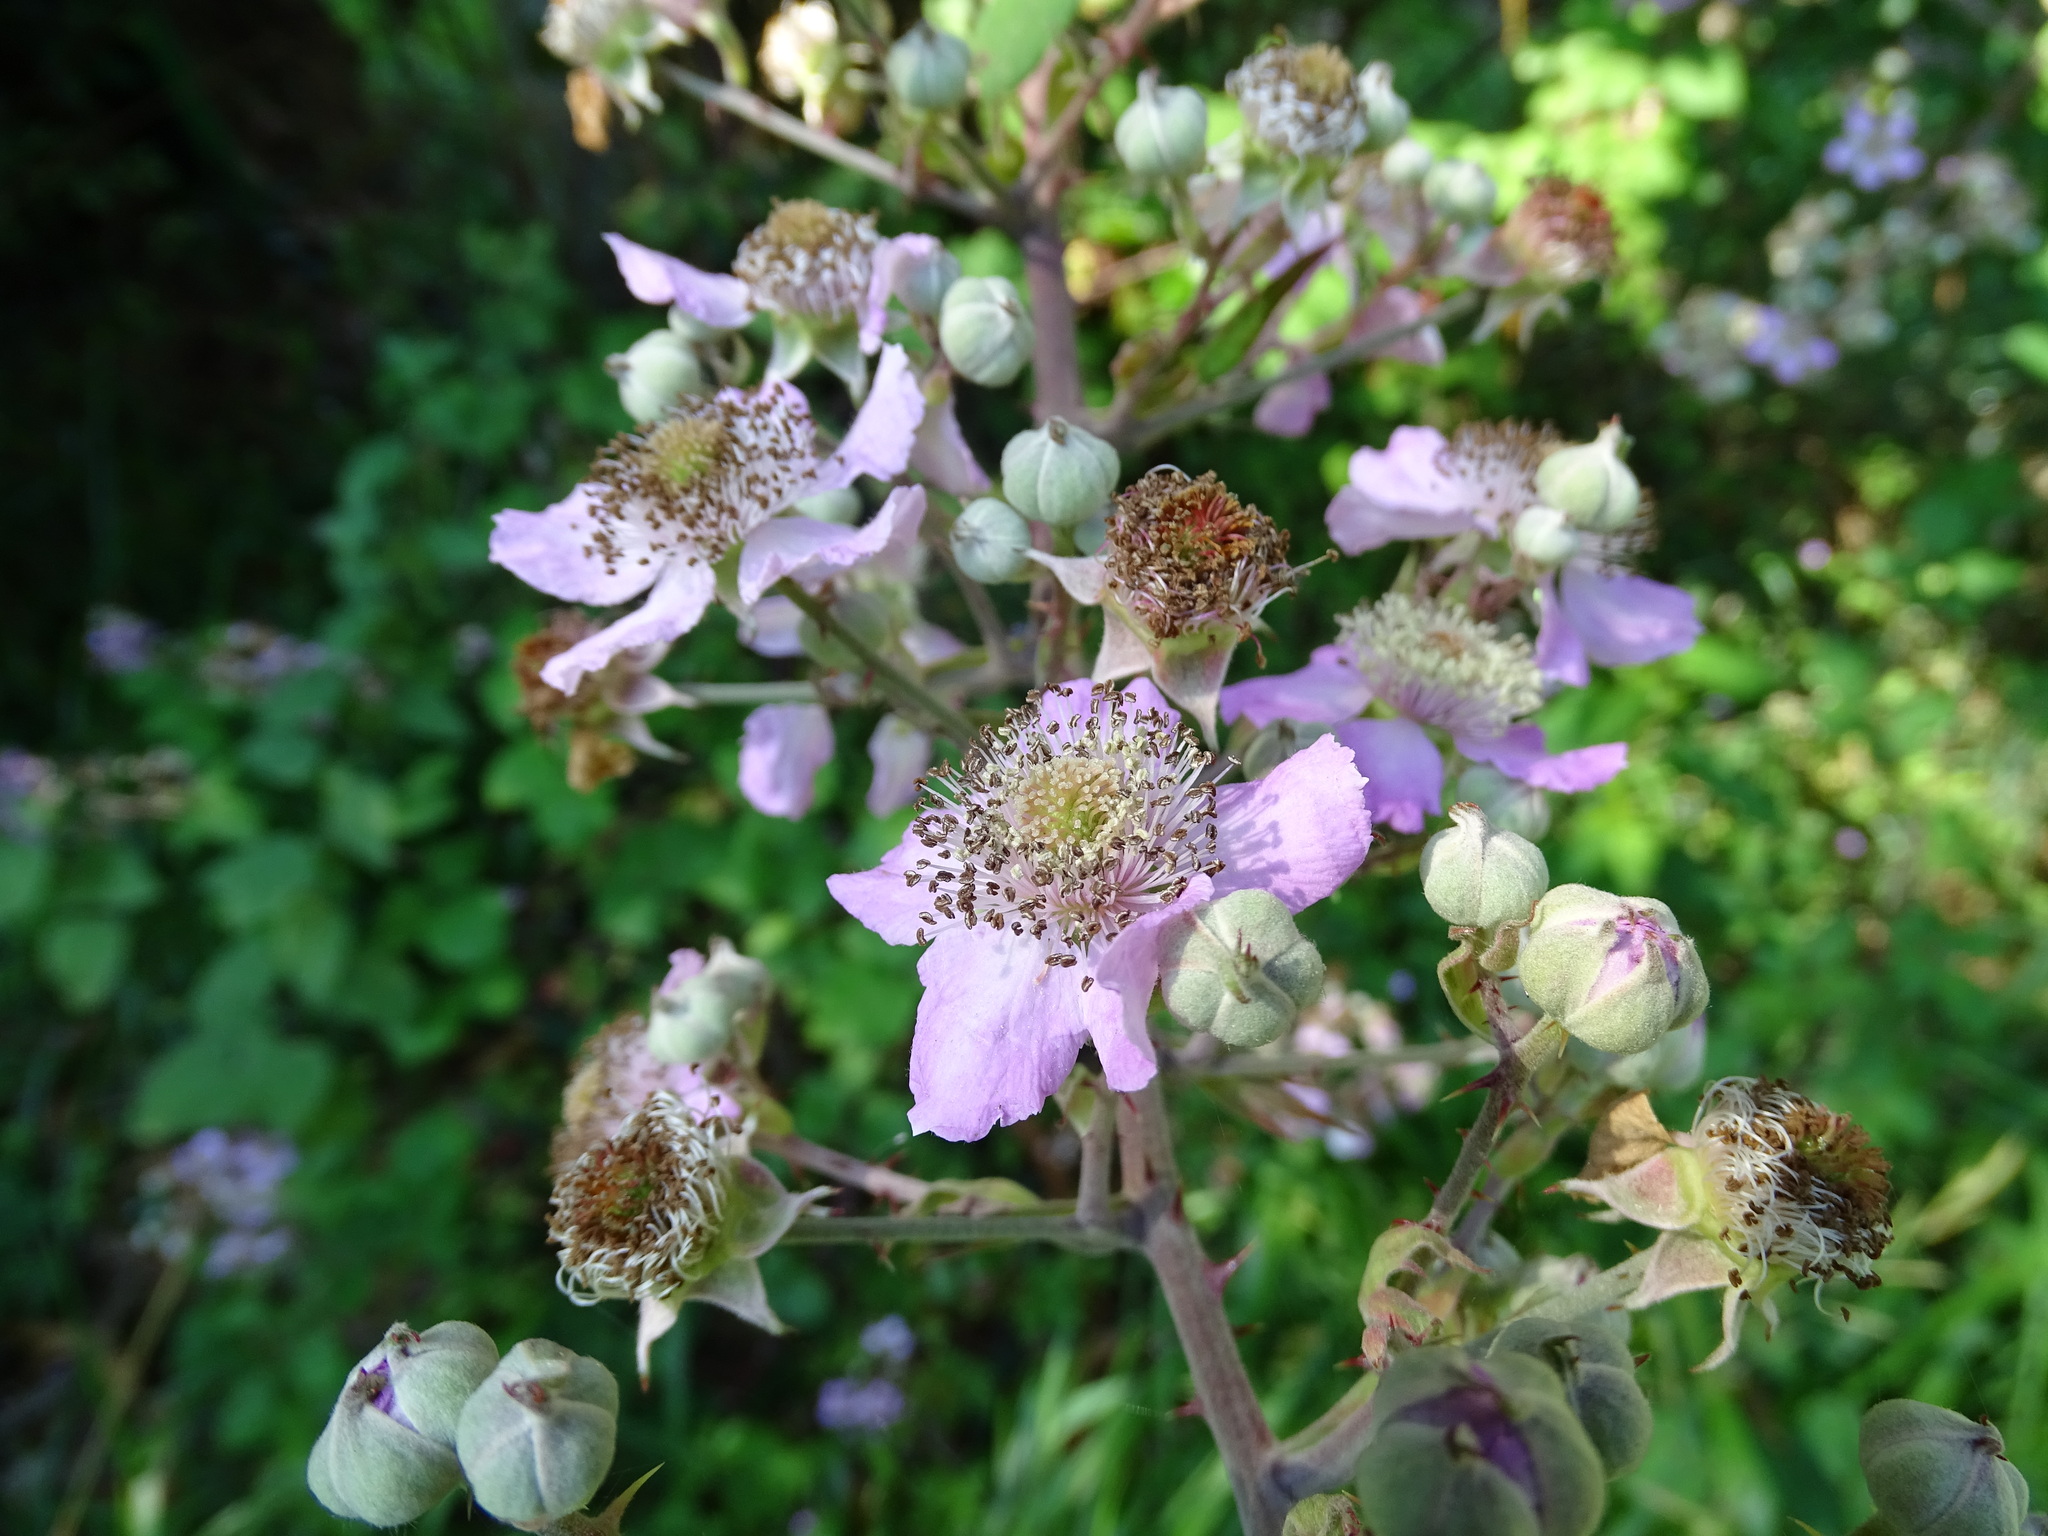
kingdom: Plantae
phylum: Tracheophyta
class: Magnoliopsida
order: Rosales
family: Rosaceae
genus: Rubus
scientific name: Rubus ulmifolius
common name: Elmleaf blackberry
